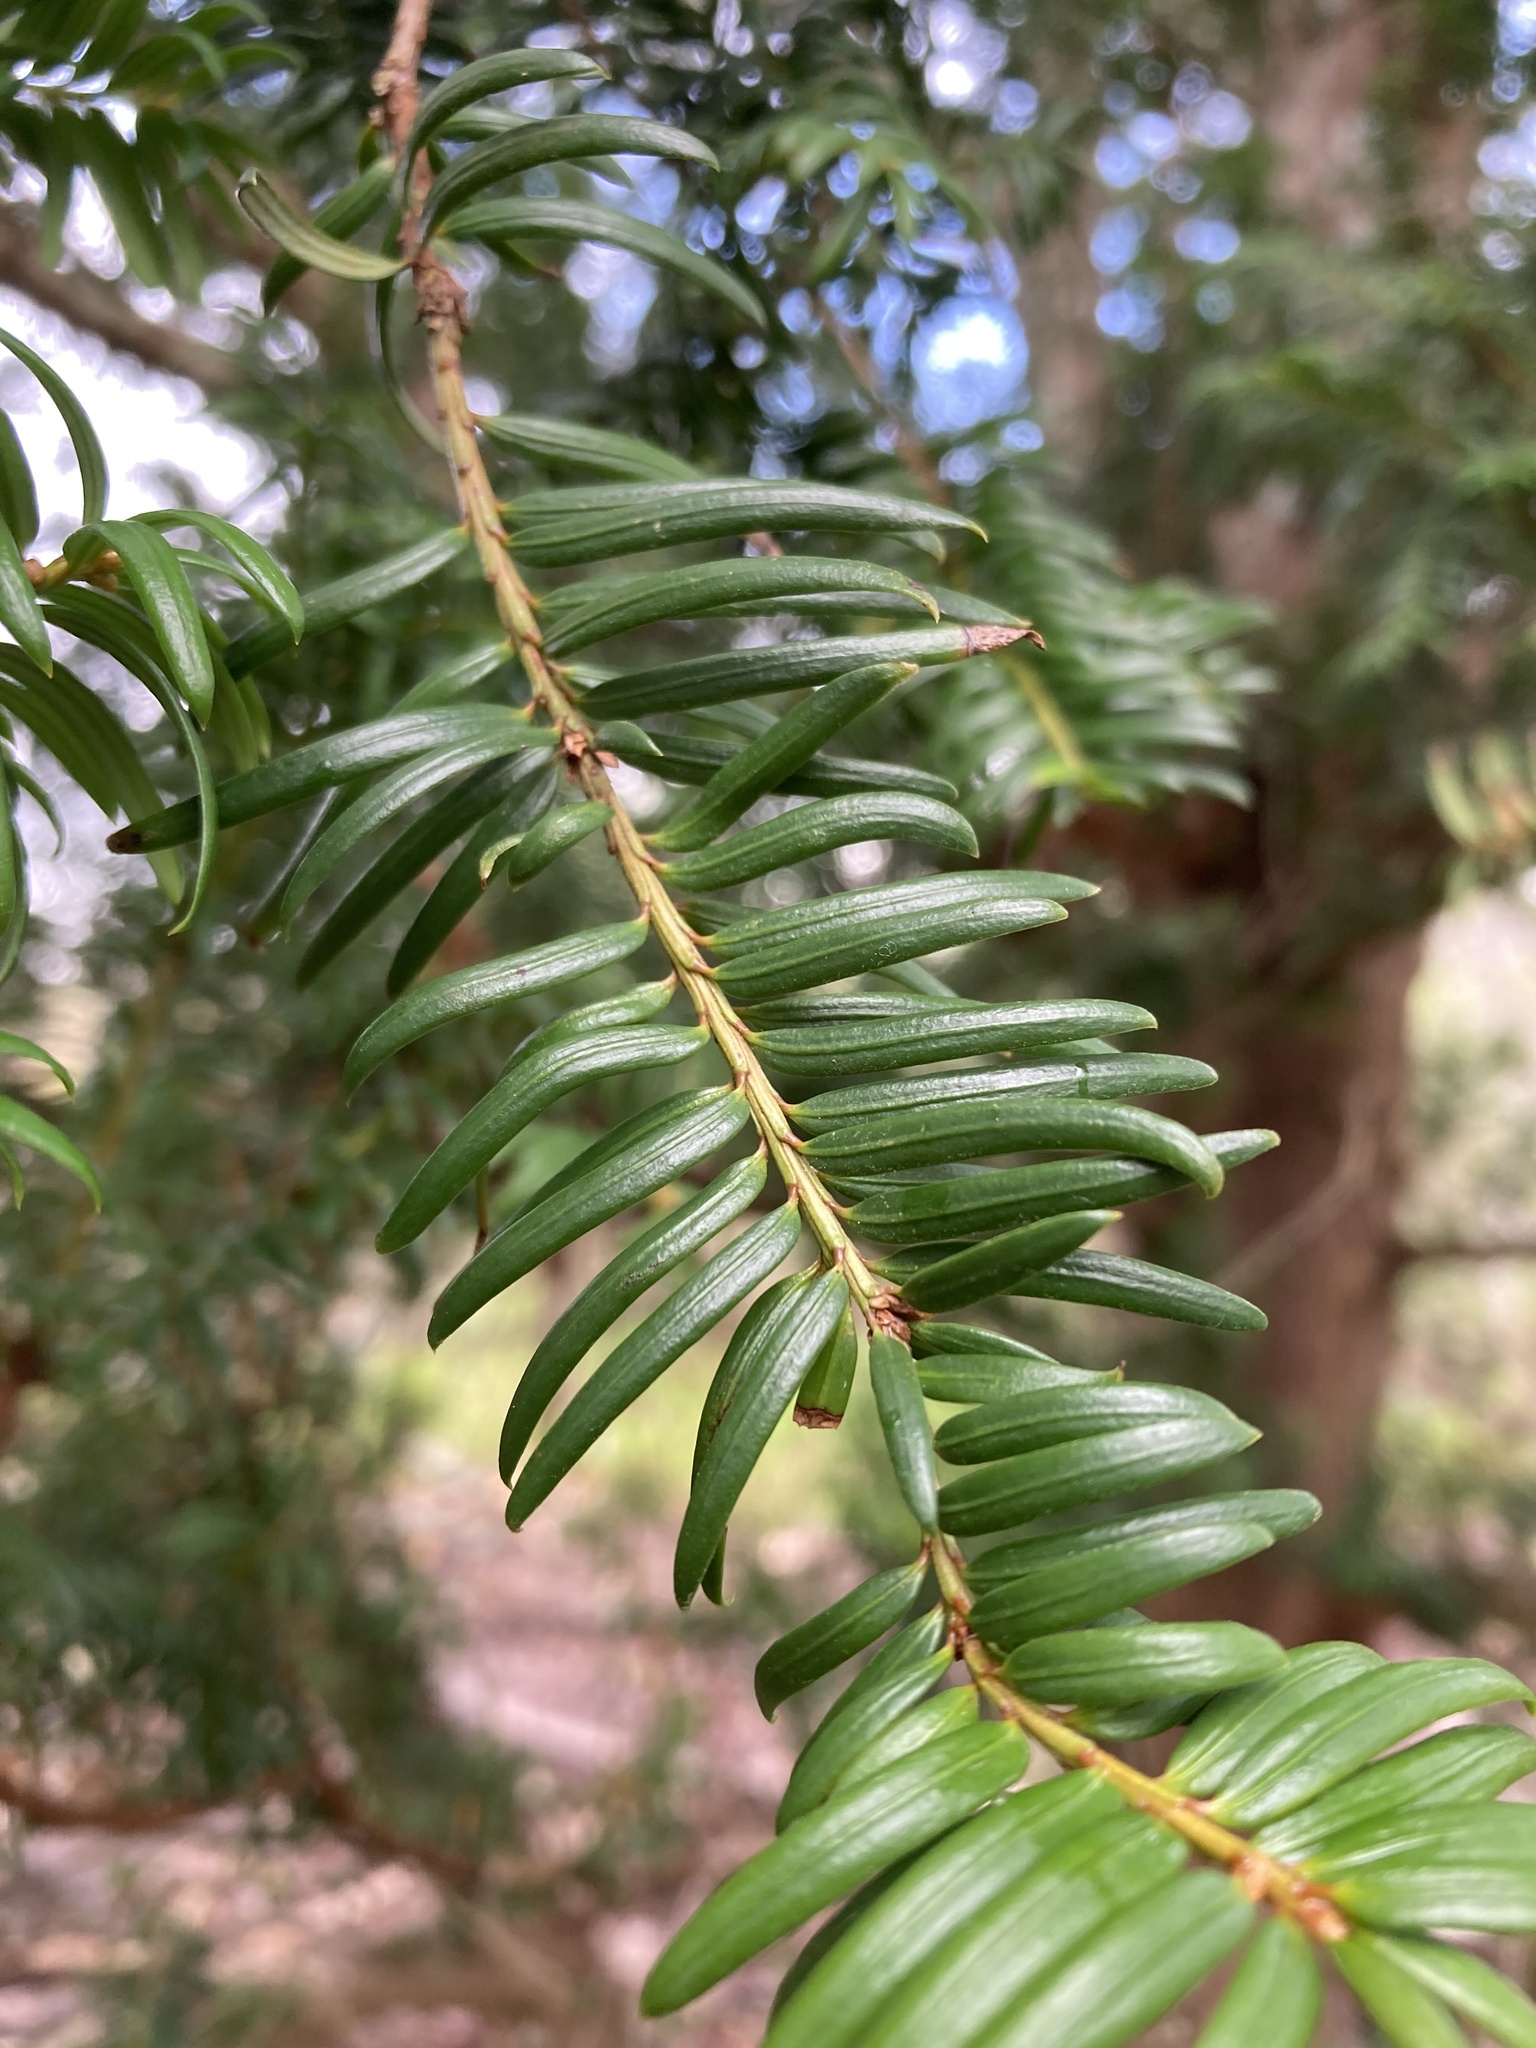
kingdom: Plantae
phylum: Tracheophyta
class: Pinopsida
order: Pinales
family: Taxaceae
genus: Taxus
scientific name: Taxus baccata
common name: Yew
